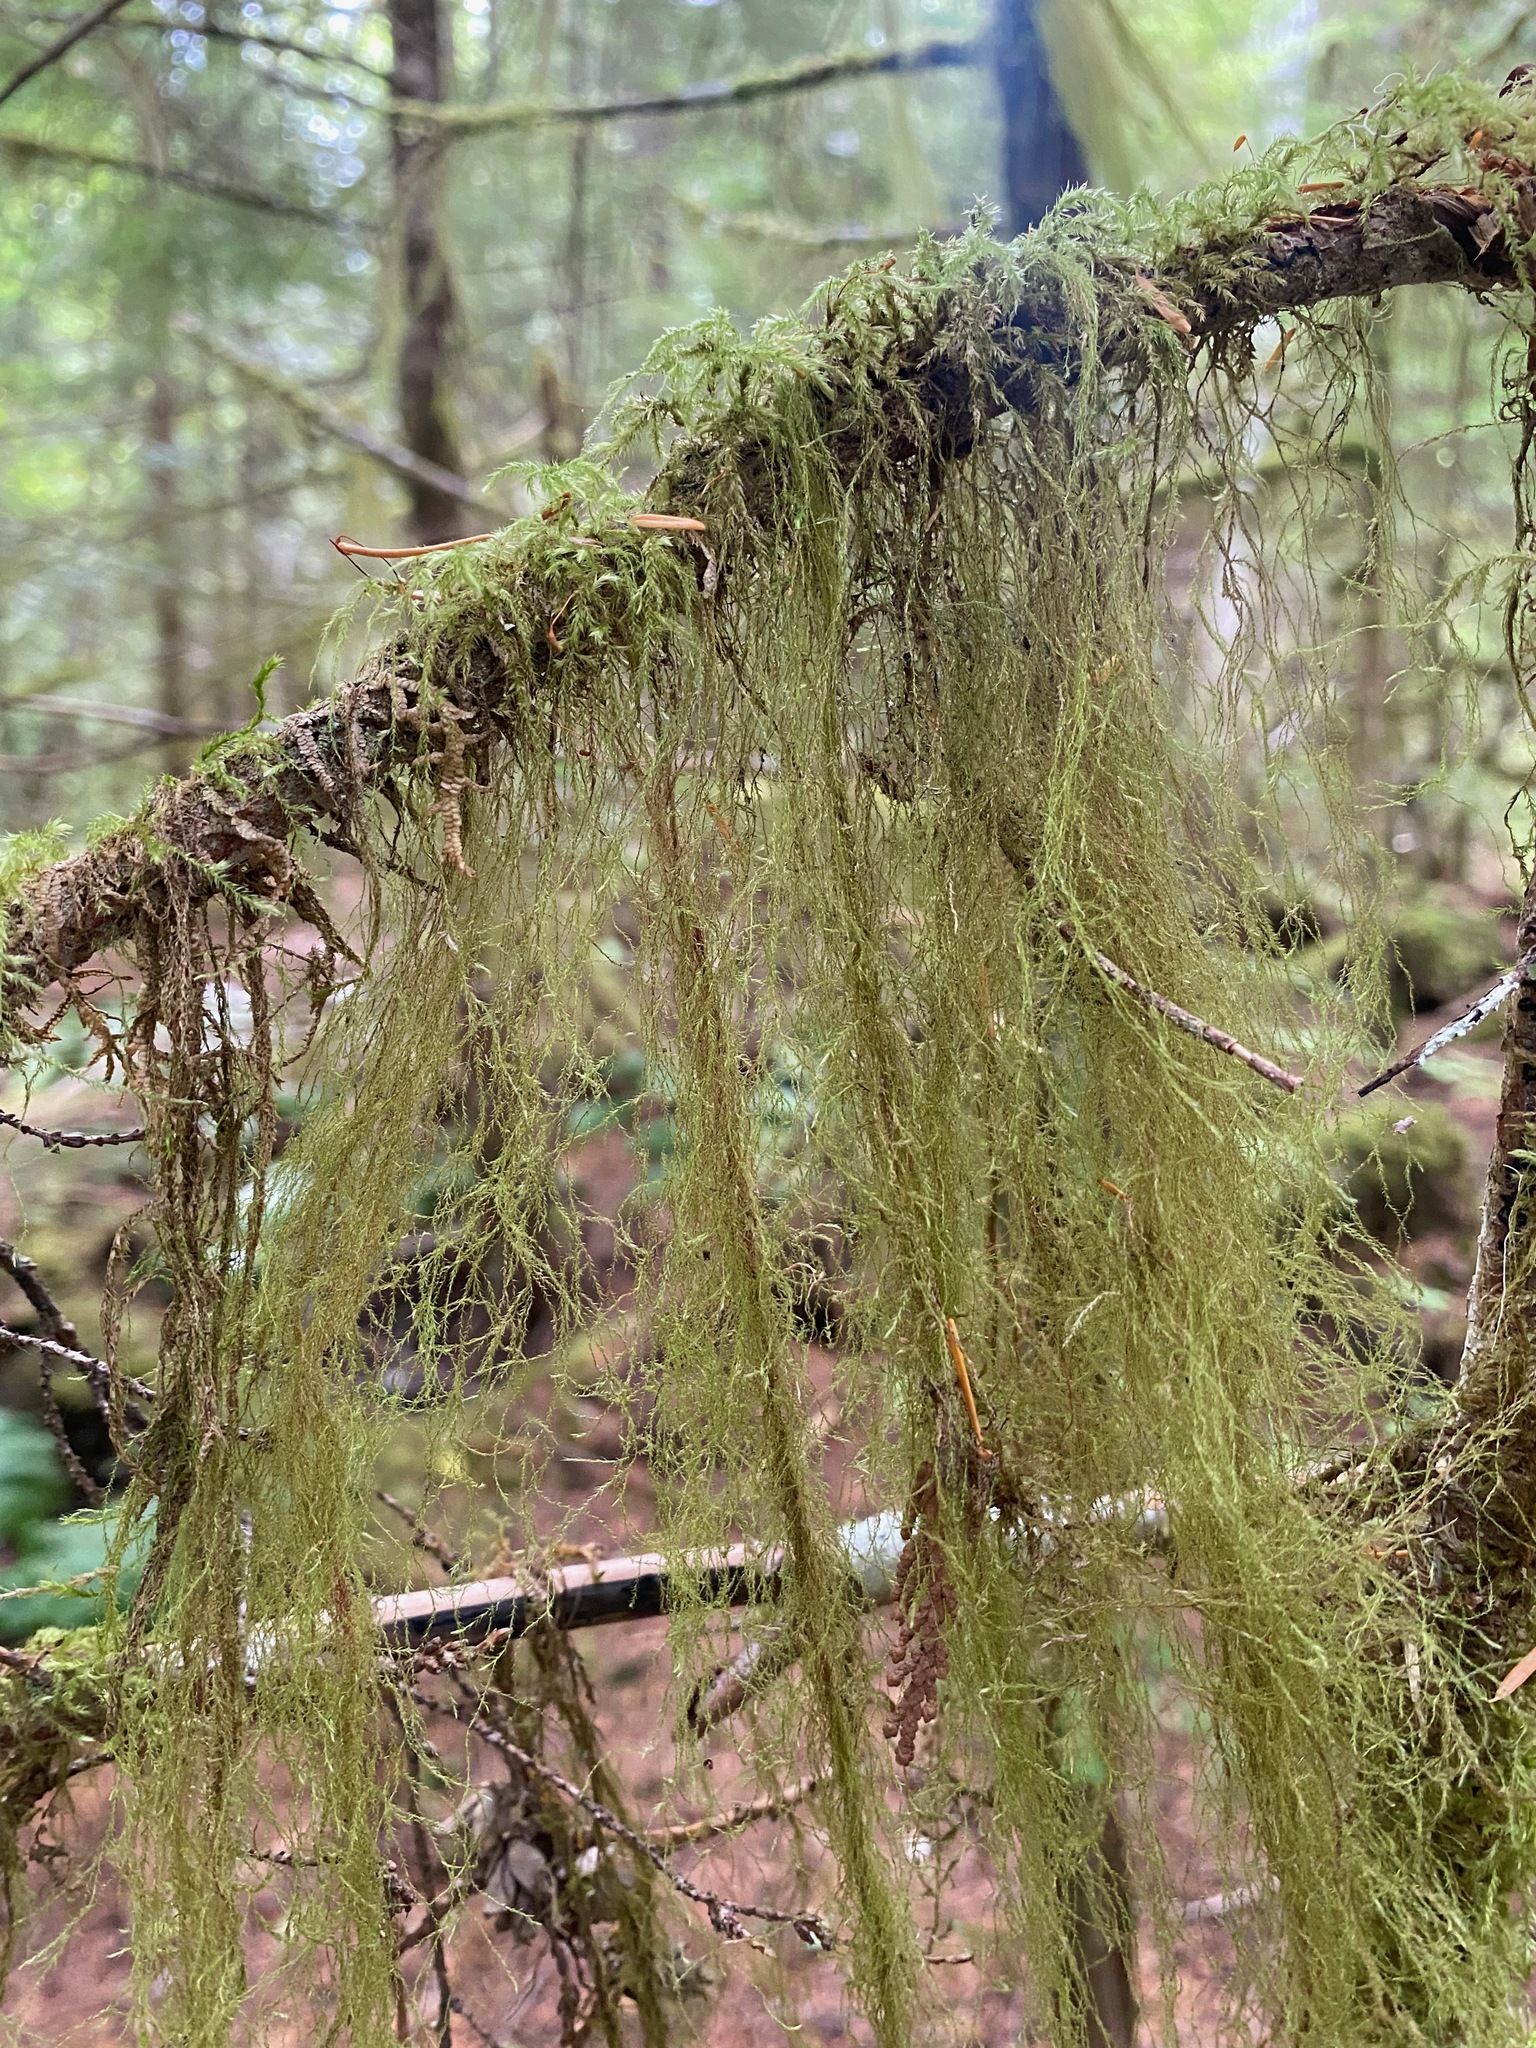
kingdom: Plantae
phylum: Bryophyta
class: Bryopsida
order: Hypnales
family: Lembophyllaceae
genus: Pseudisothecium
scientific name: Pseudisothecium stoloniferum
